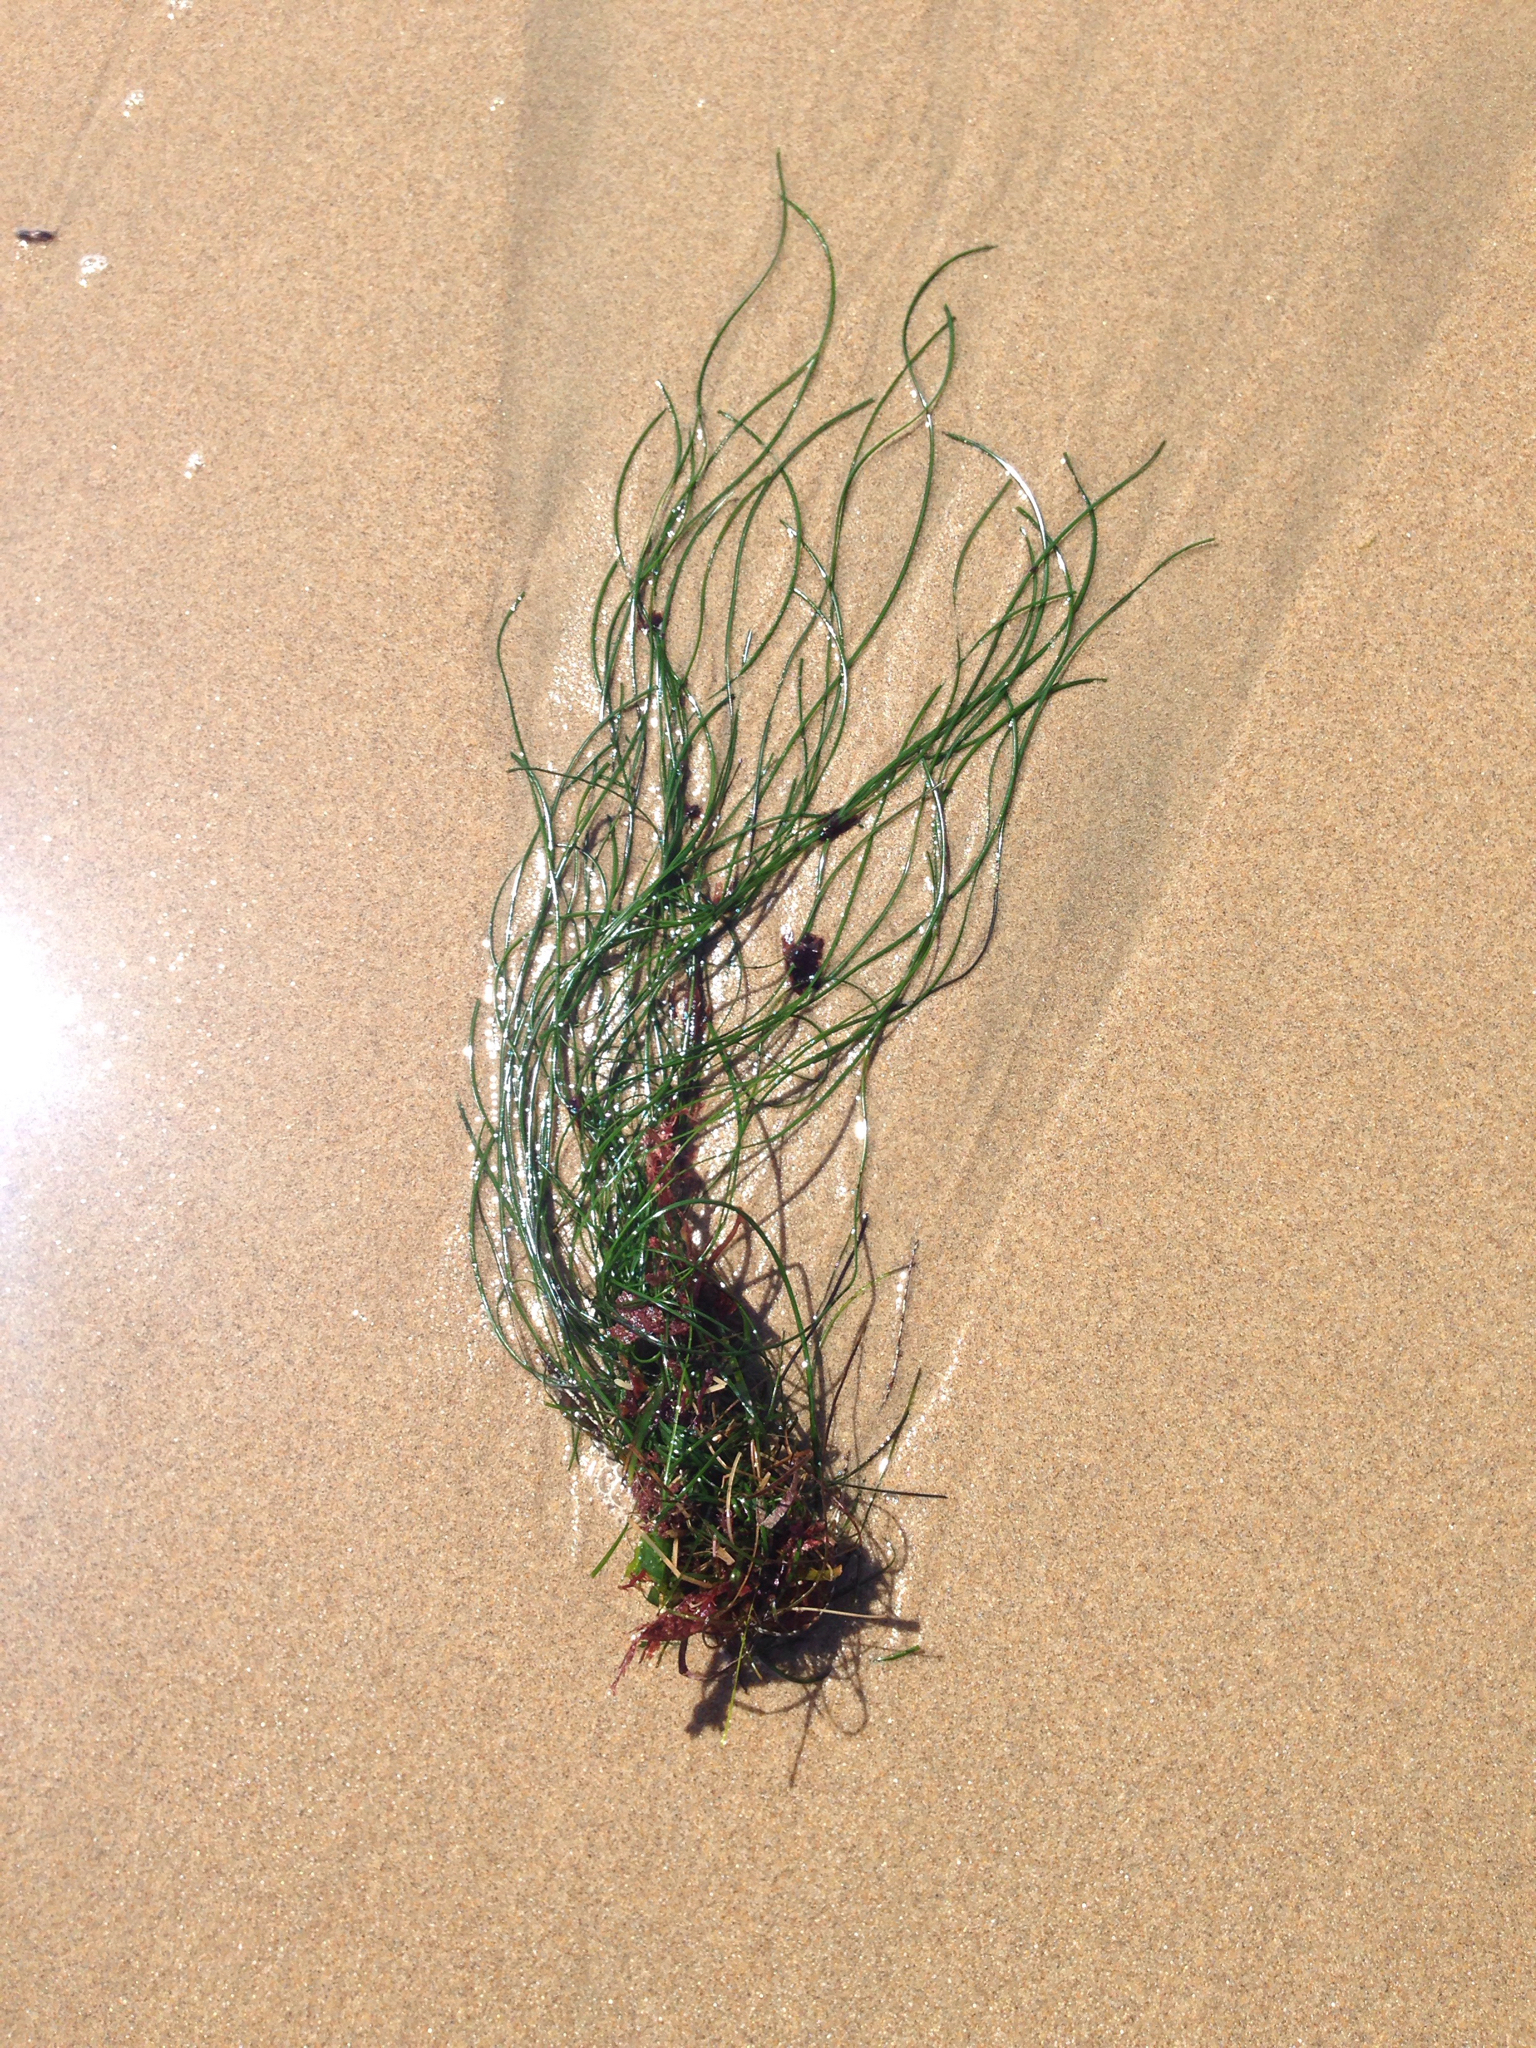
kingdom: Plantae
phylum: Tracheophyta
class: Liliopsida
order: Alismatales
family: Zosteraceae
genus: Phyllospadix
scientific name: Phyllospadix torreyi
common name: Surfgrass
